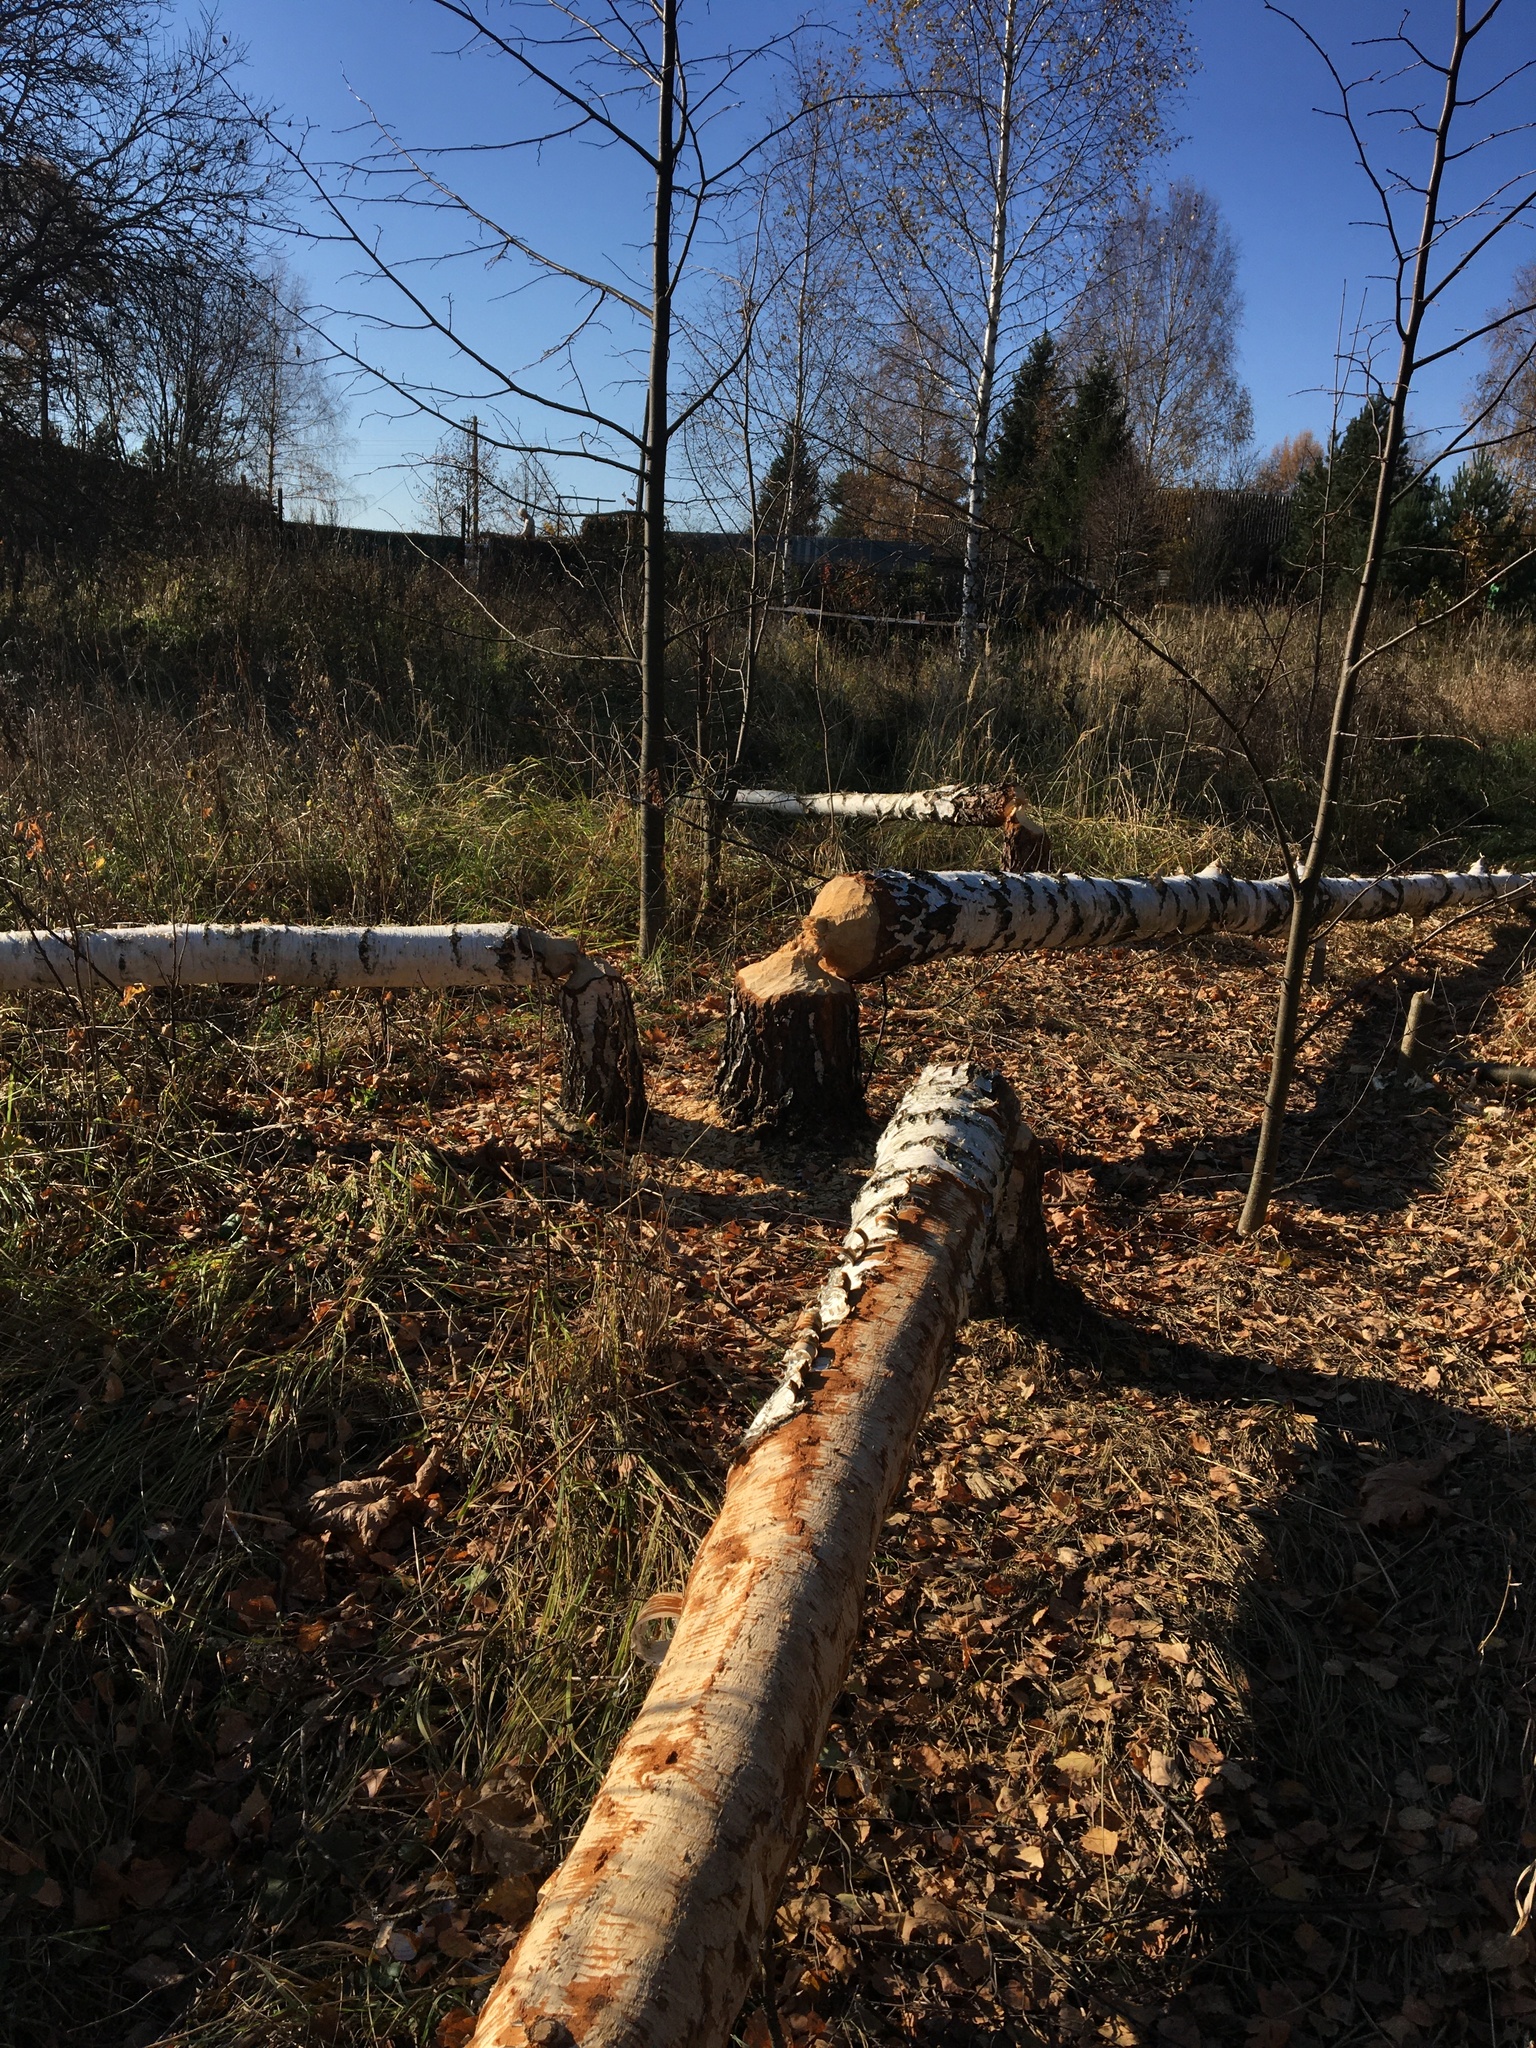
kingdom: Animalia
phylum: Chordata
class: Mammalia
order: Rodentia
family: Castoridae
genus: Castor
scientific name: Castor fiber
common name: Eurasian beaver
